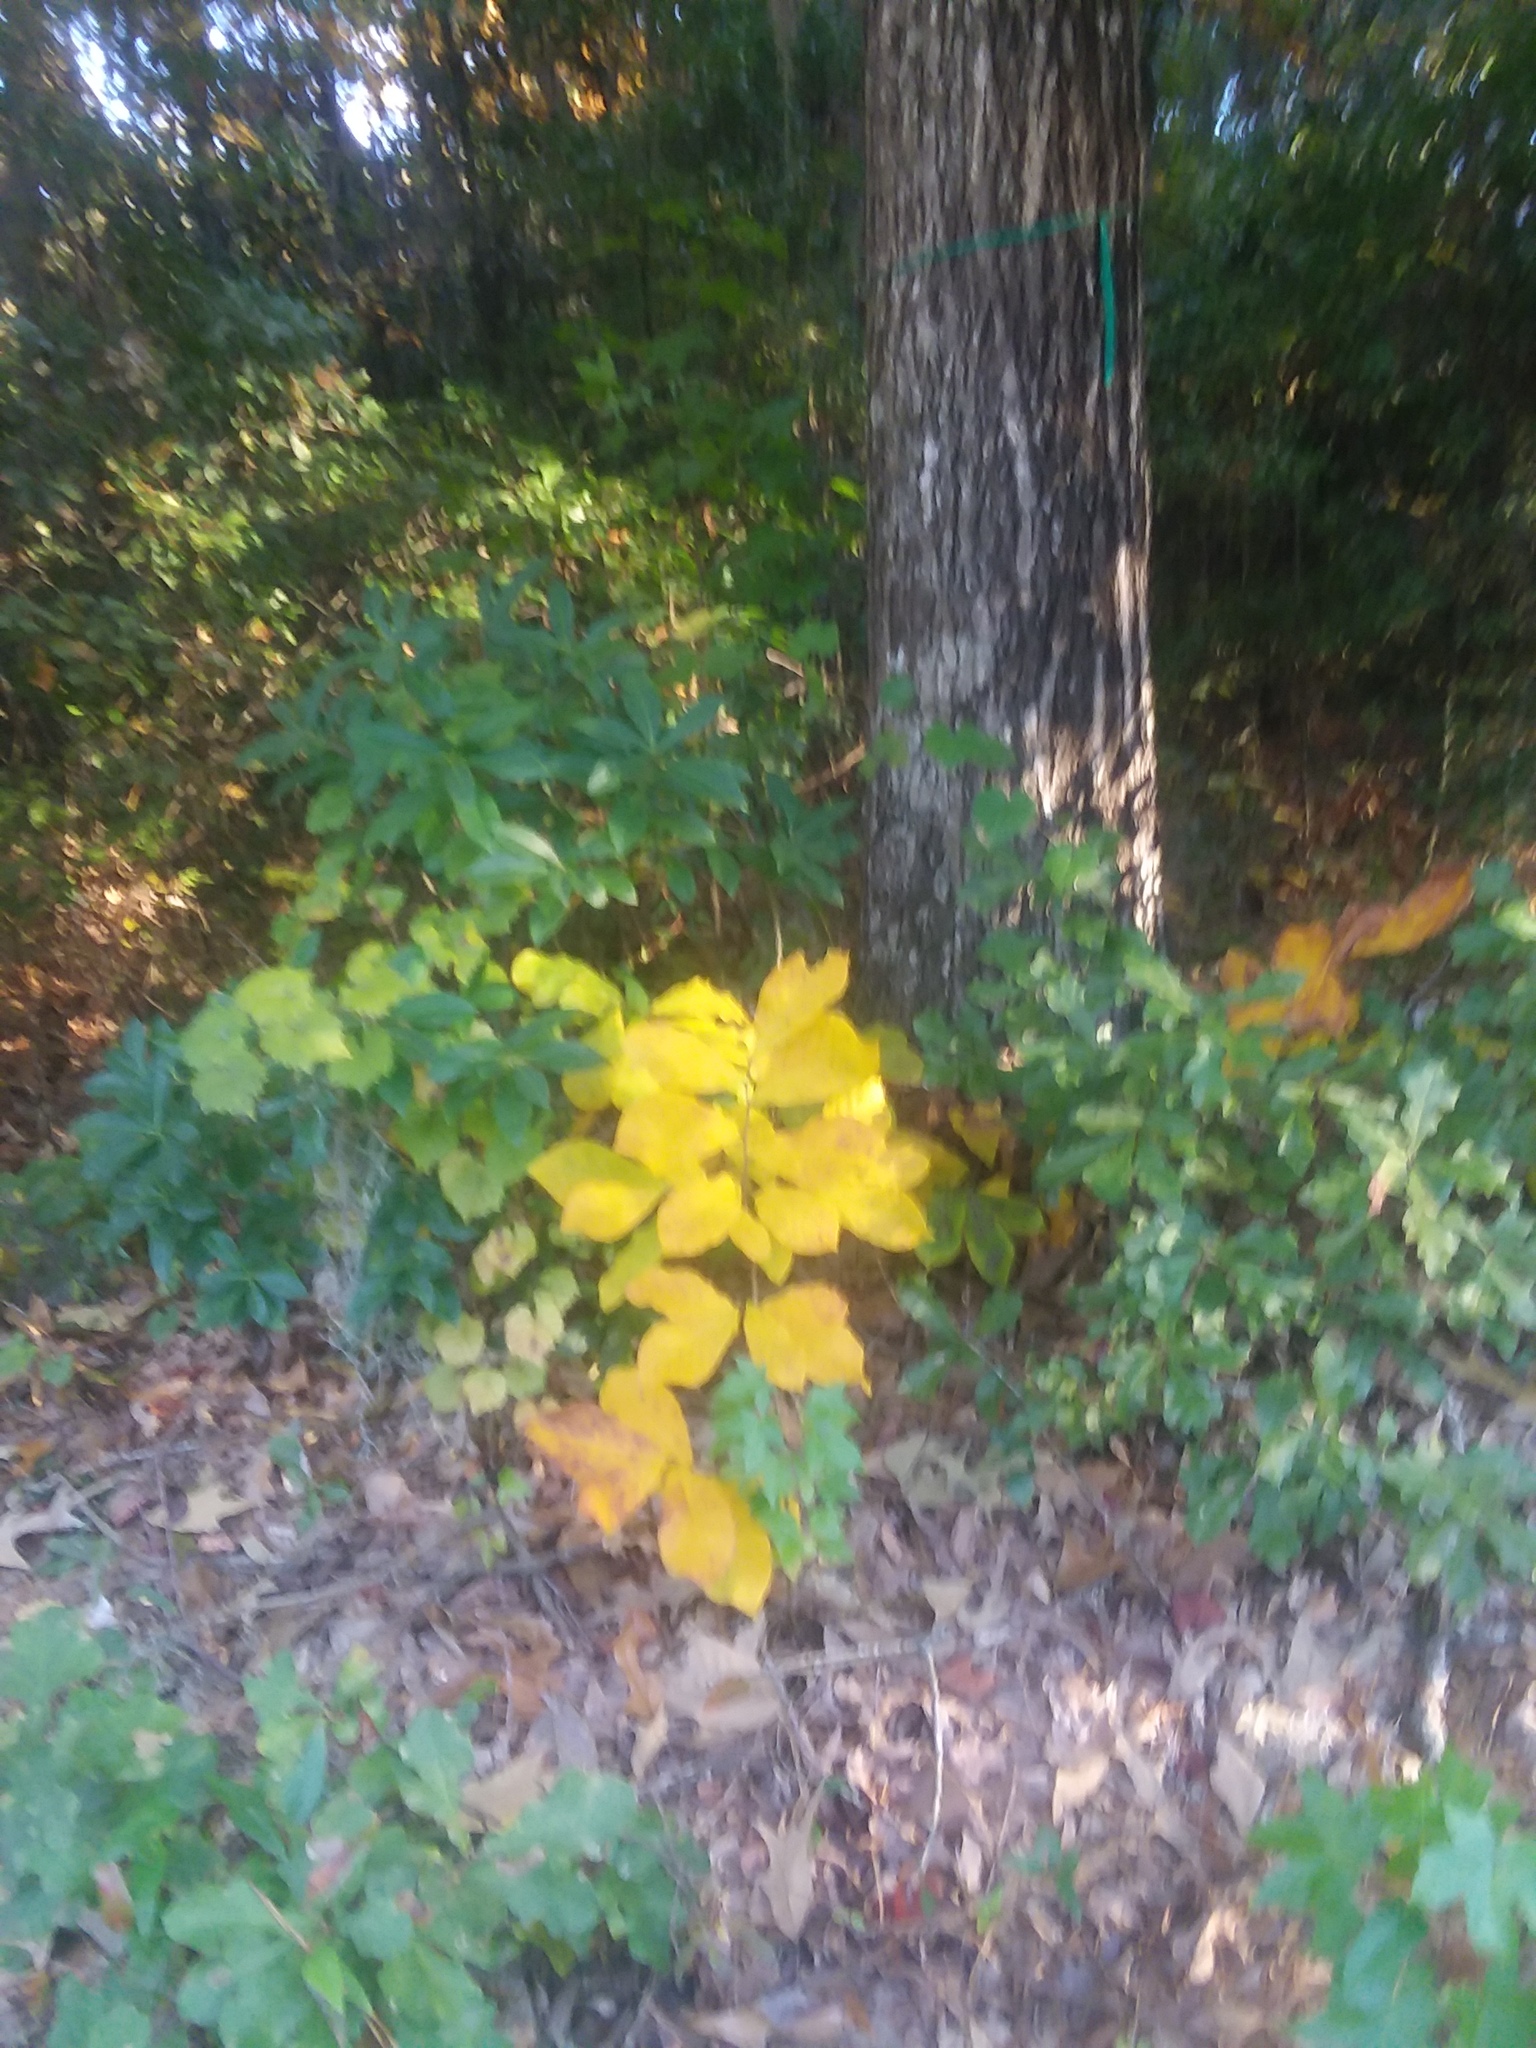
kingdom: Plantae
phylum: Tracheophyta
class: Magnoliopsida
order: Magnoliales
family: Annonaceae
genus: Asimina
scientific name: Asimina parviflora
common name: Dwarf pawpaw
